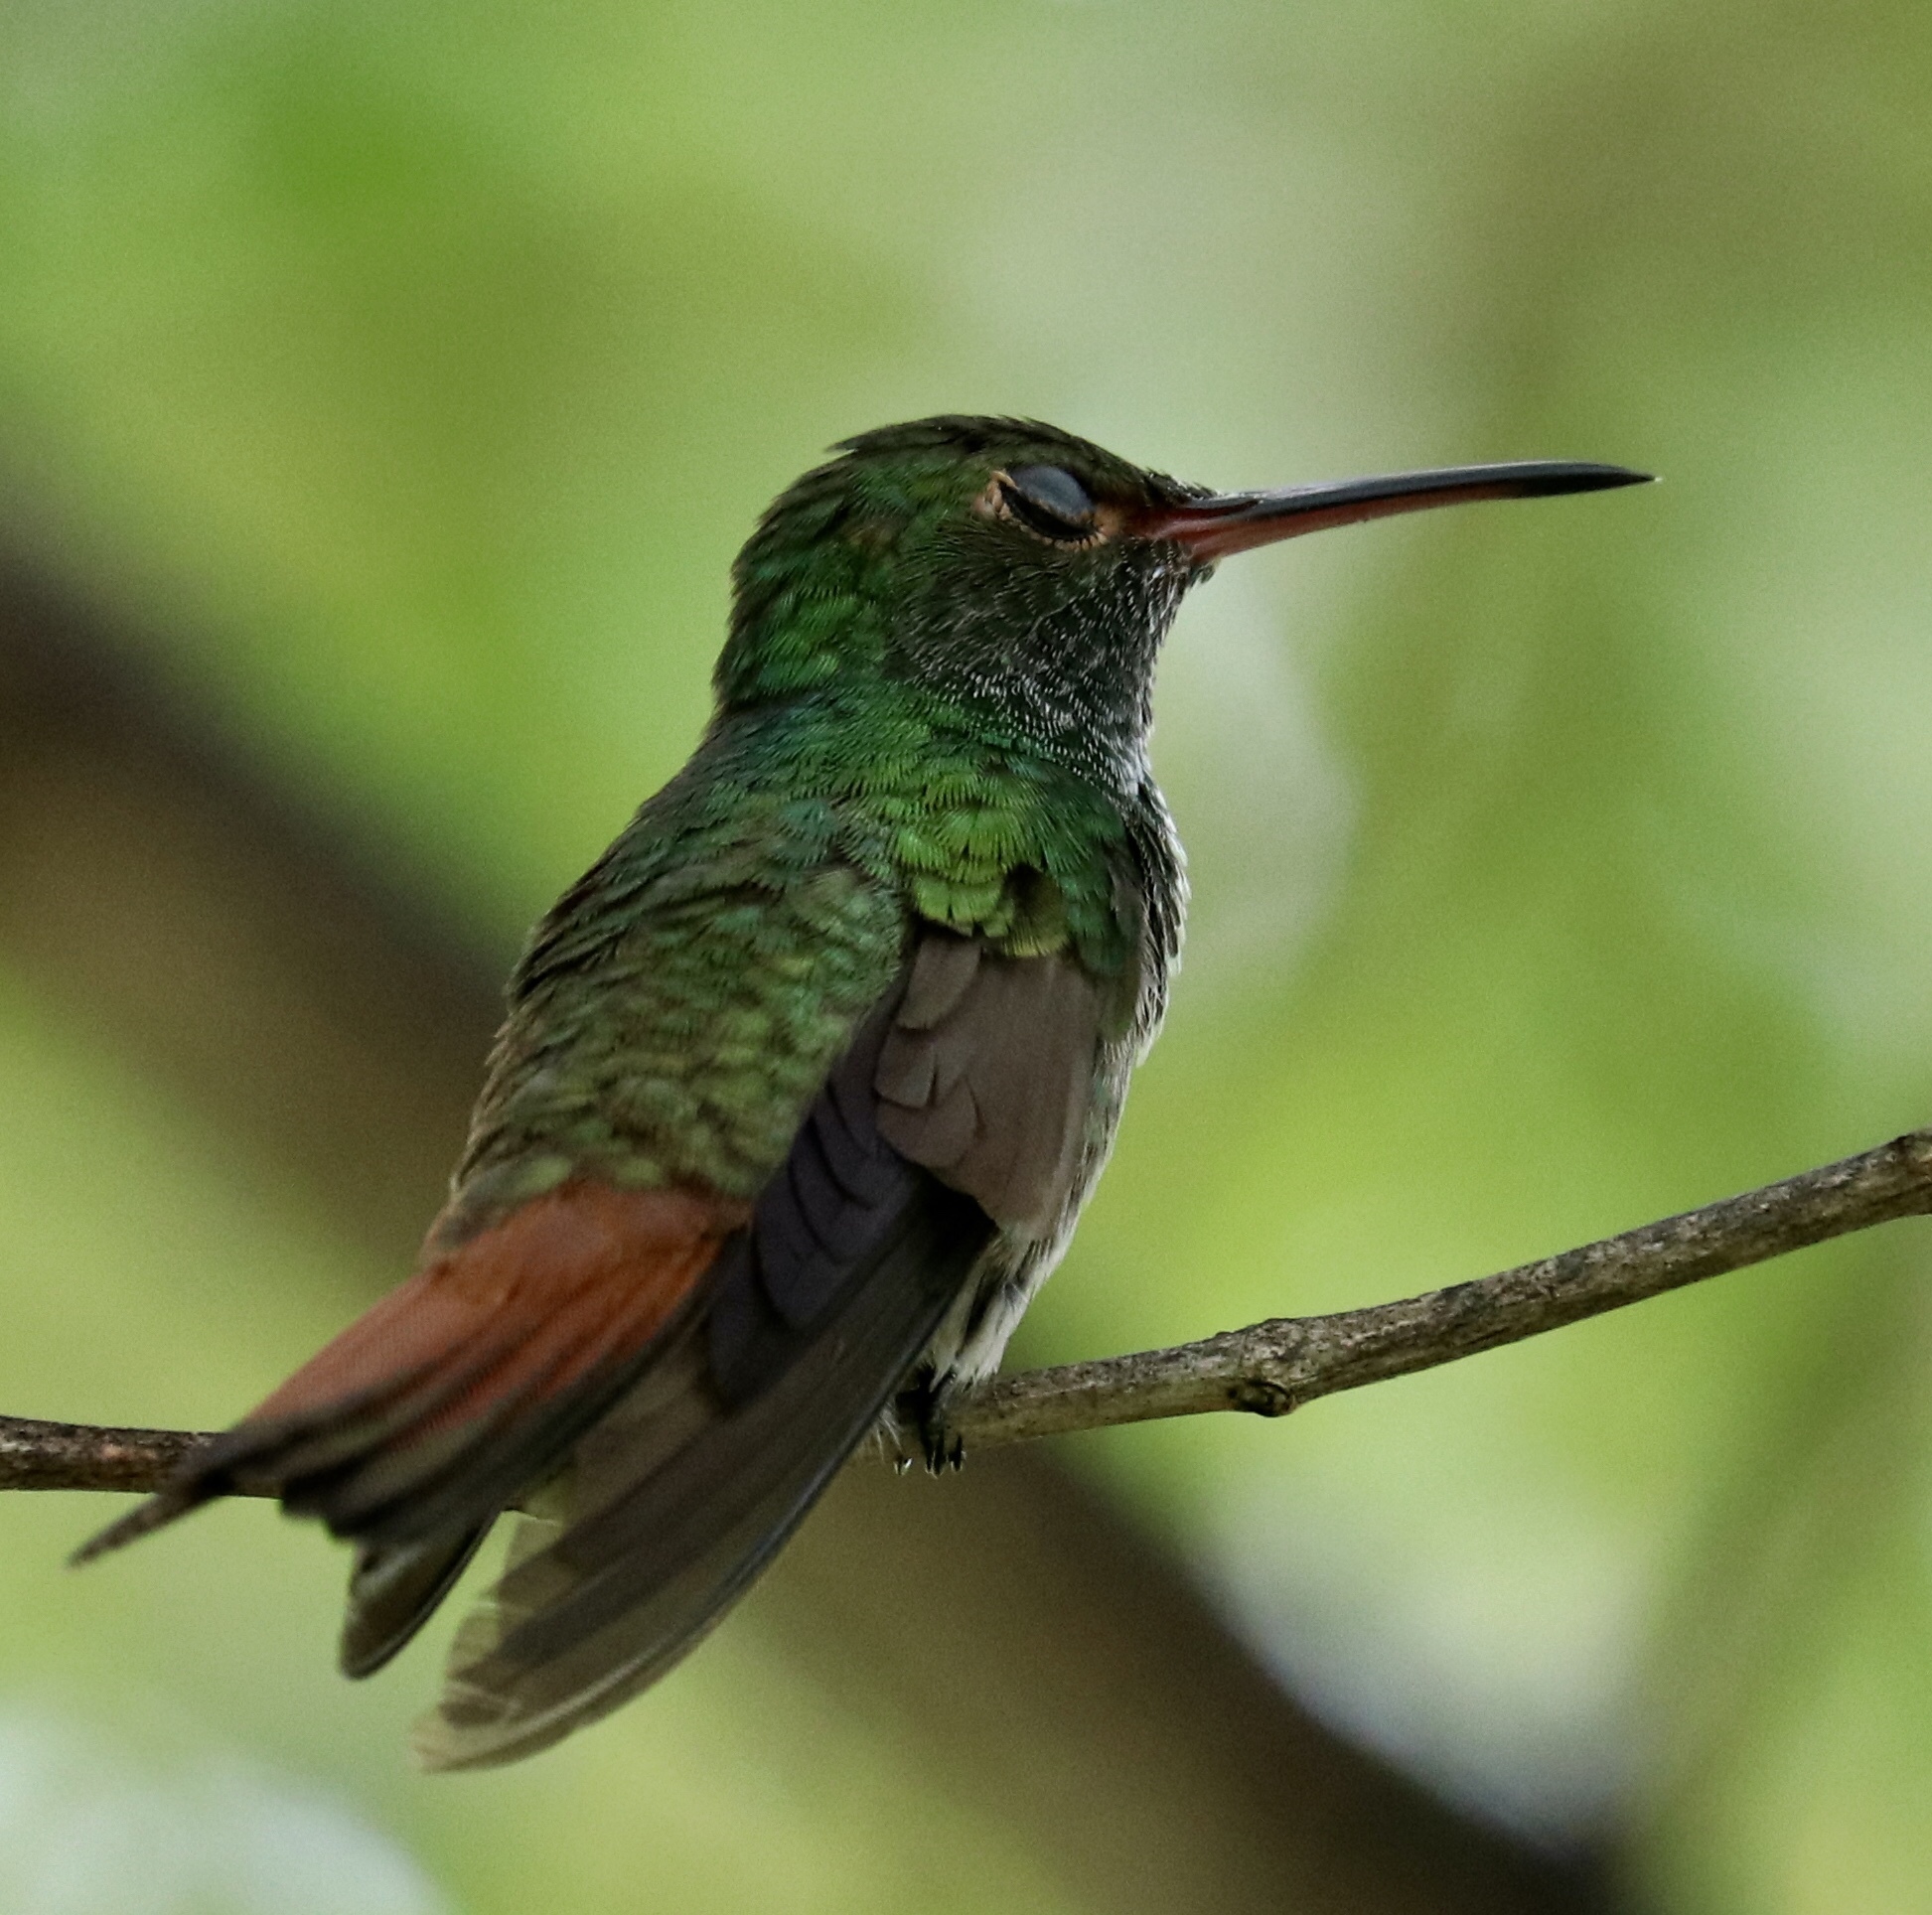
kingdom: Animalia
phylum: Chordata
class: Aves
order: Apodiformes
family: Trochilidae
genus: Amazilia
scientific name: Amazilia tzacatl
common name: Rufous-tailed hummingbird
